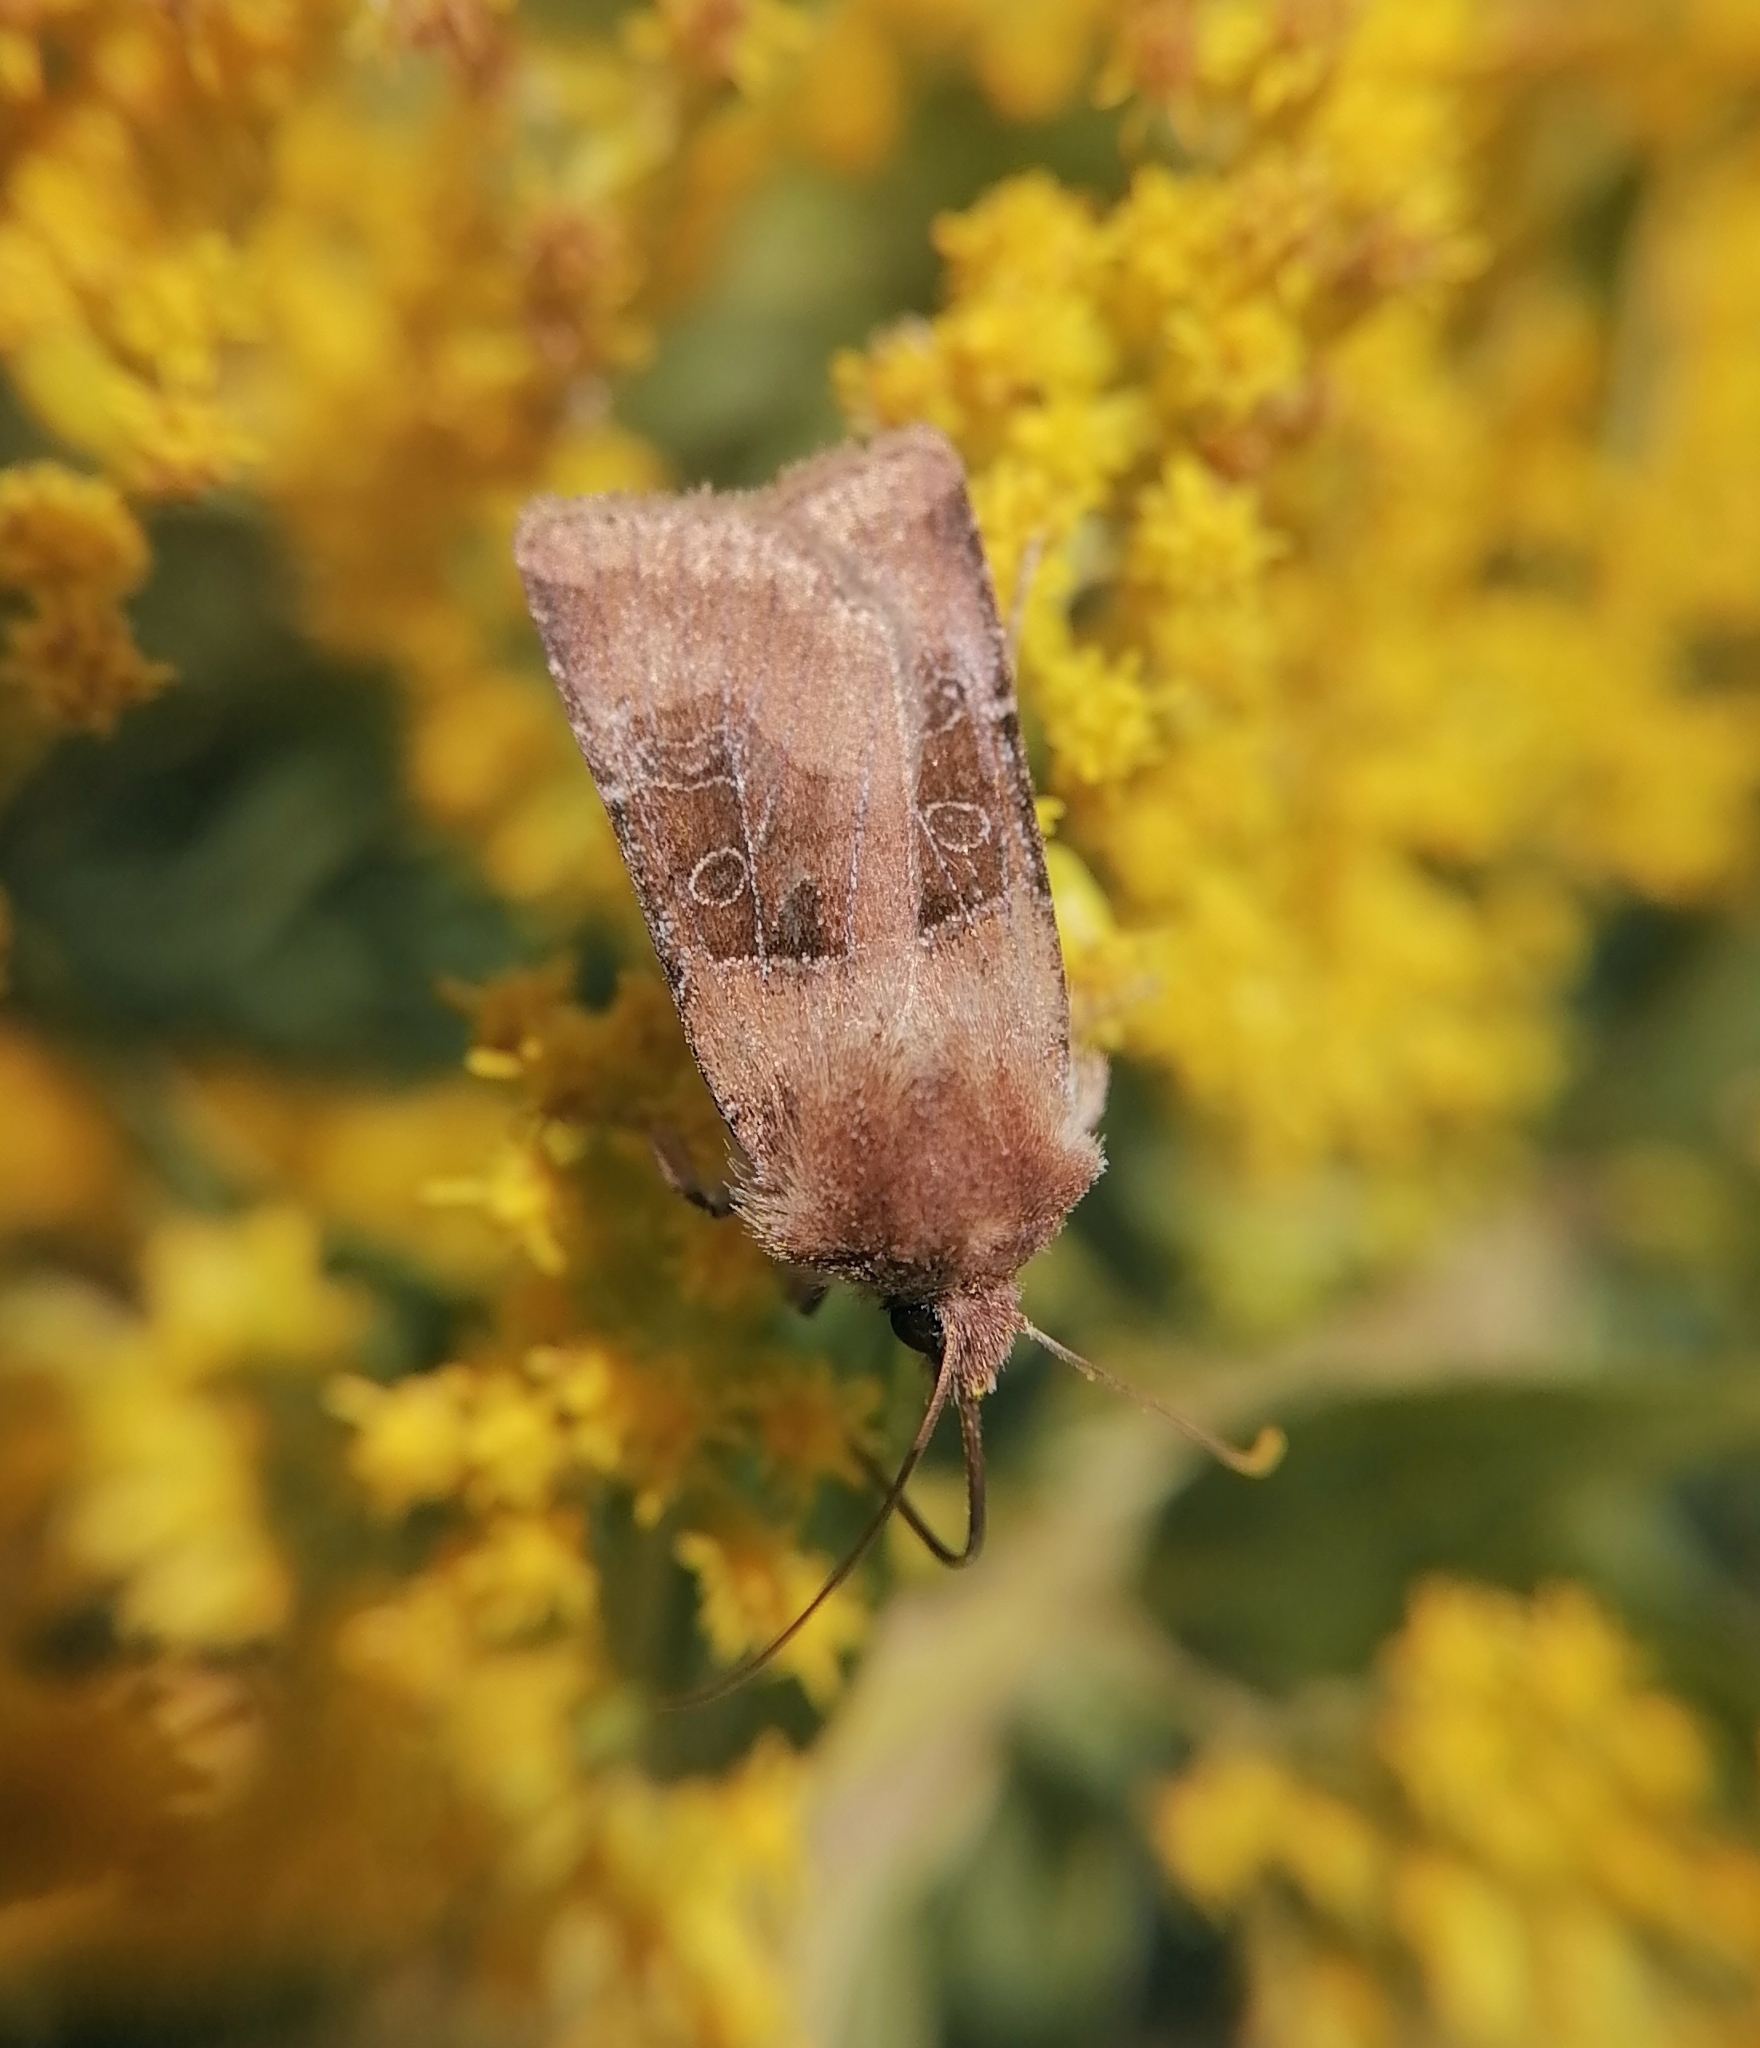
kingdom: Animalia
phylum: Arthropoda
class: Insecta
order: Lepidoptera
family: Noctuidae
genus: Chersotis
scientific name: Chersotis cuprea
